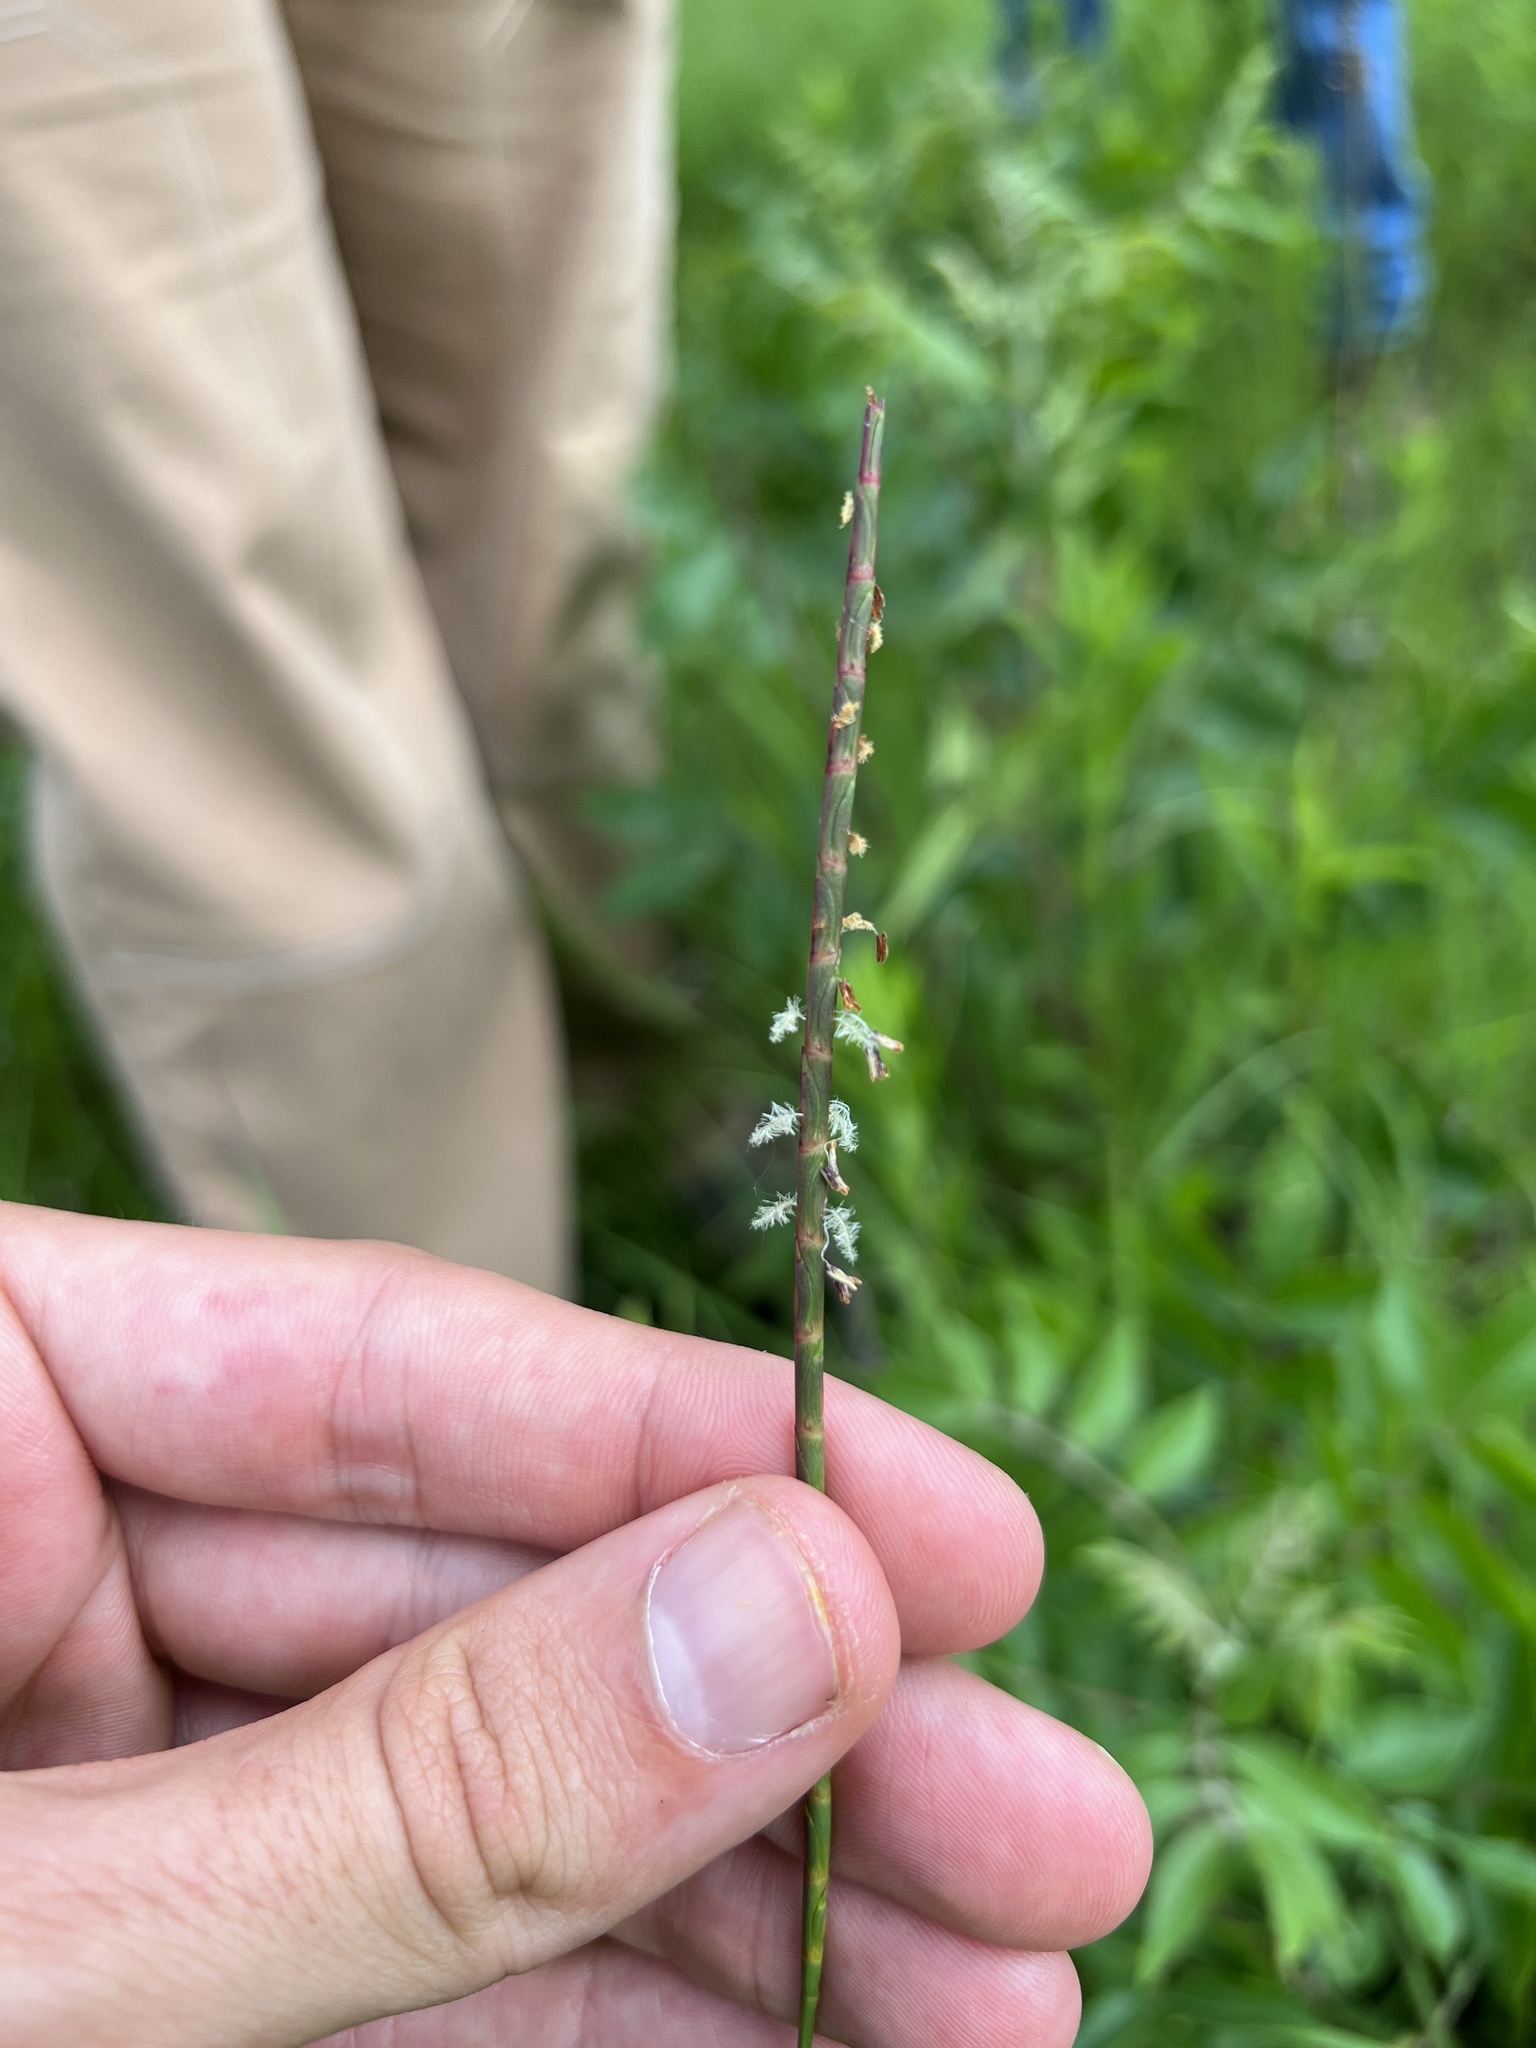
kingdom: Plantae
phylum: Tracheophyta
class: Liliopsida
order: Poales
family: Poaceae
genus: Rottboellia
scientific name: Rottboellia campestris
